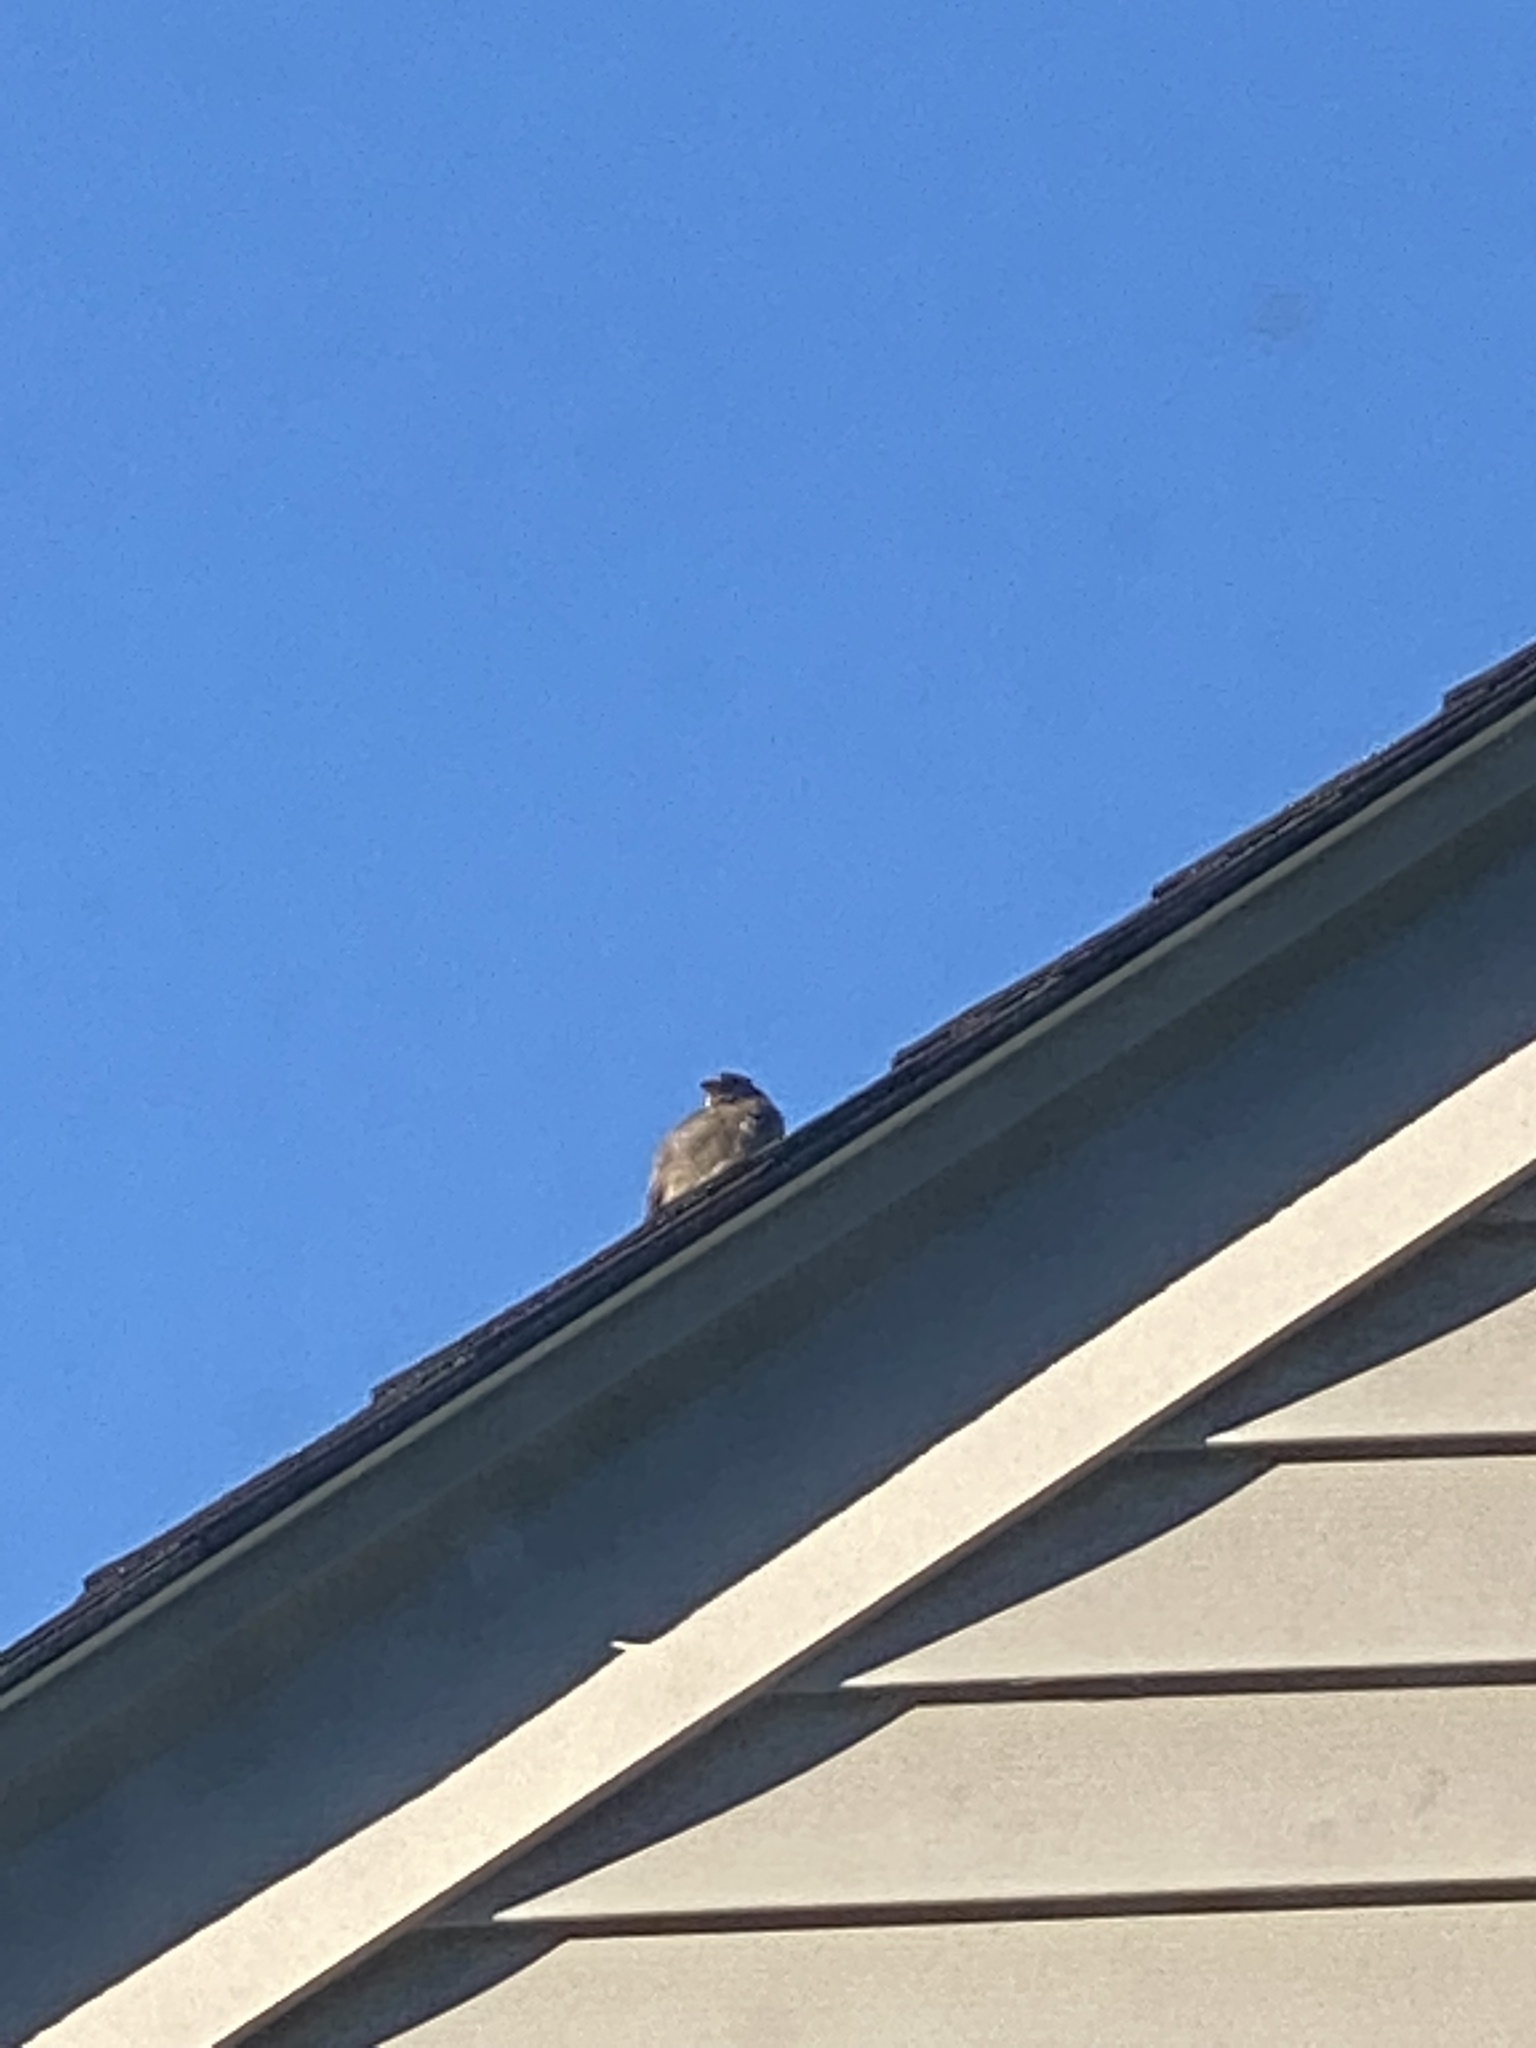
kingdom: Animalia
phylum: Chordata
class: Aves
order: Passeriformes
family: Passeridae
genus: Passer
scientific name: Passer domesticus
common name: House sparrow
